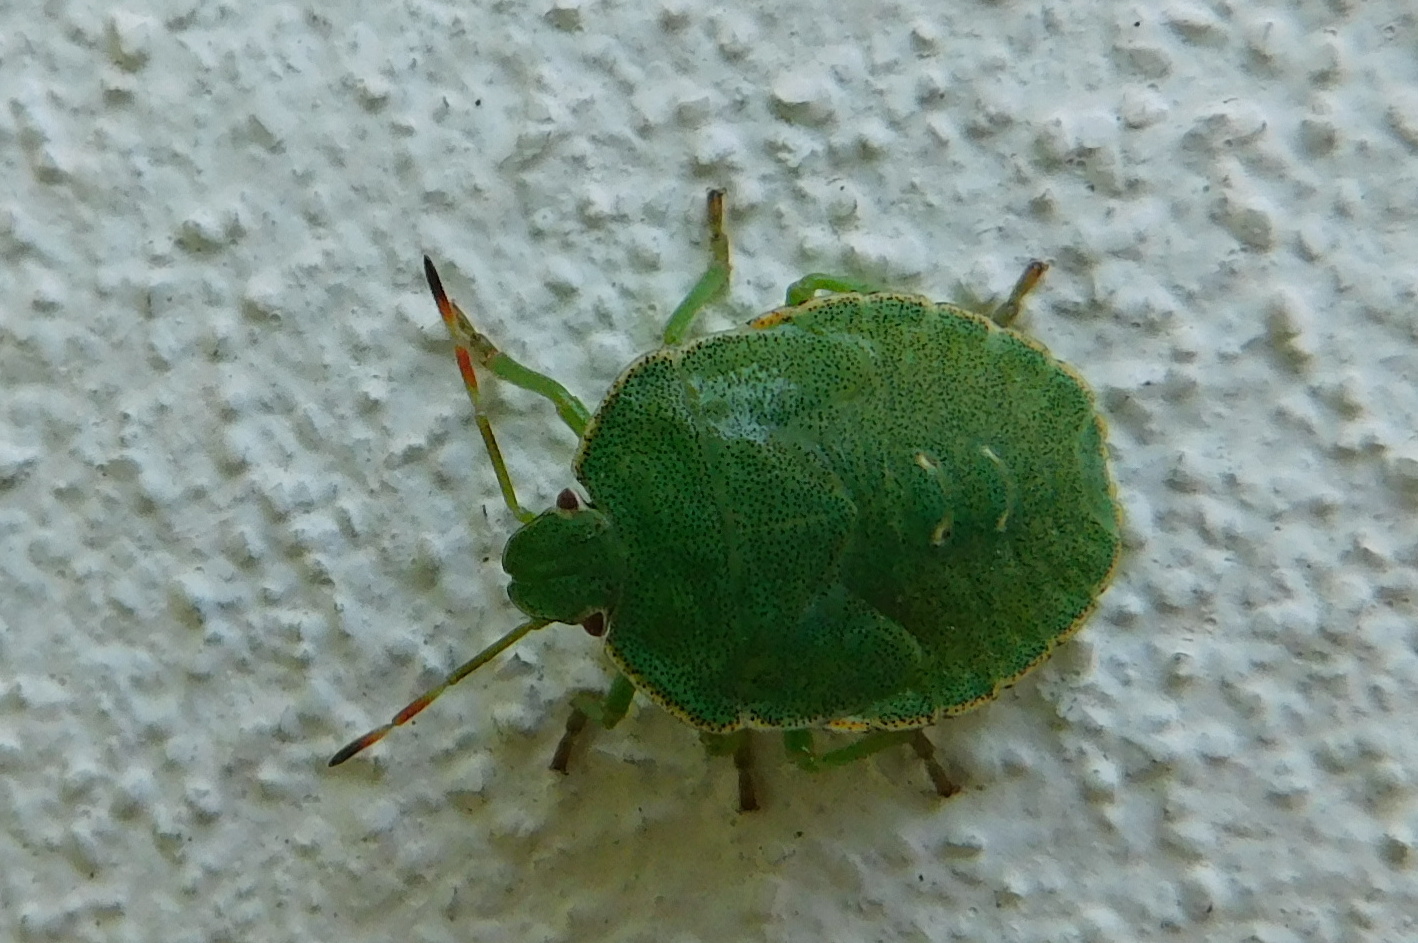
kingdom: Animalia
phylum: Arthropoda
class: Insecta
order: Hemiptera
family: Pentatomidae
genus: Palomena
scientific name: Palomena prasina
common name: Green shieldbug
